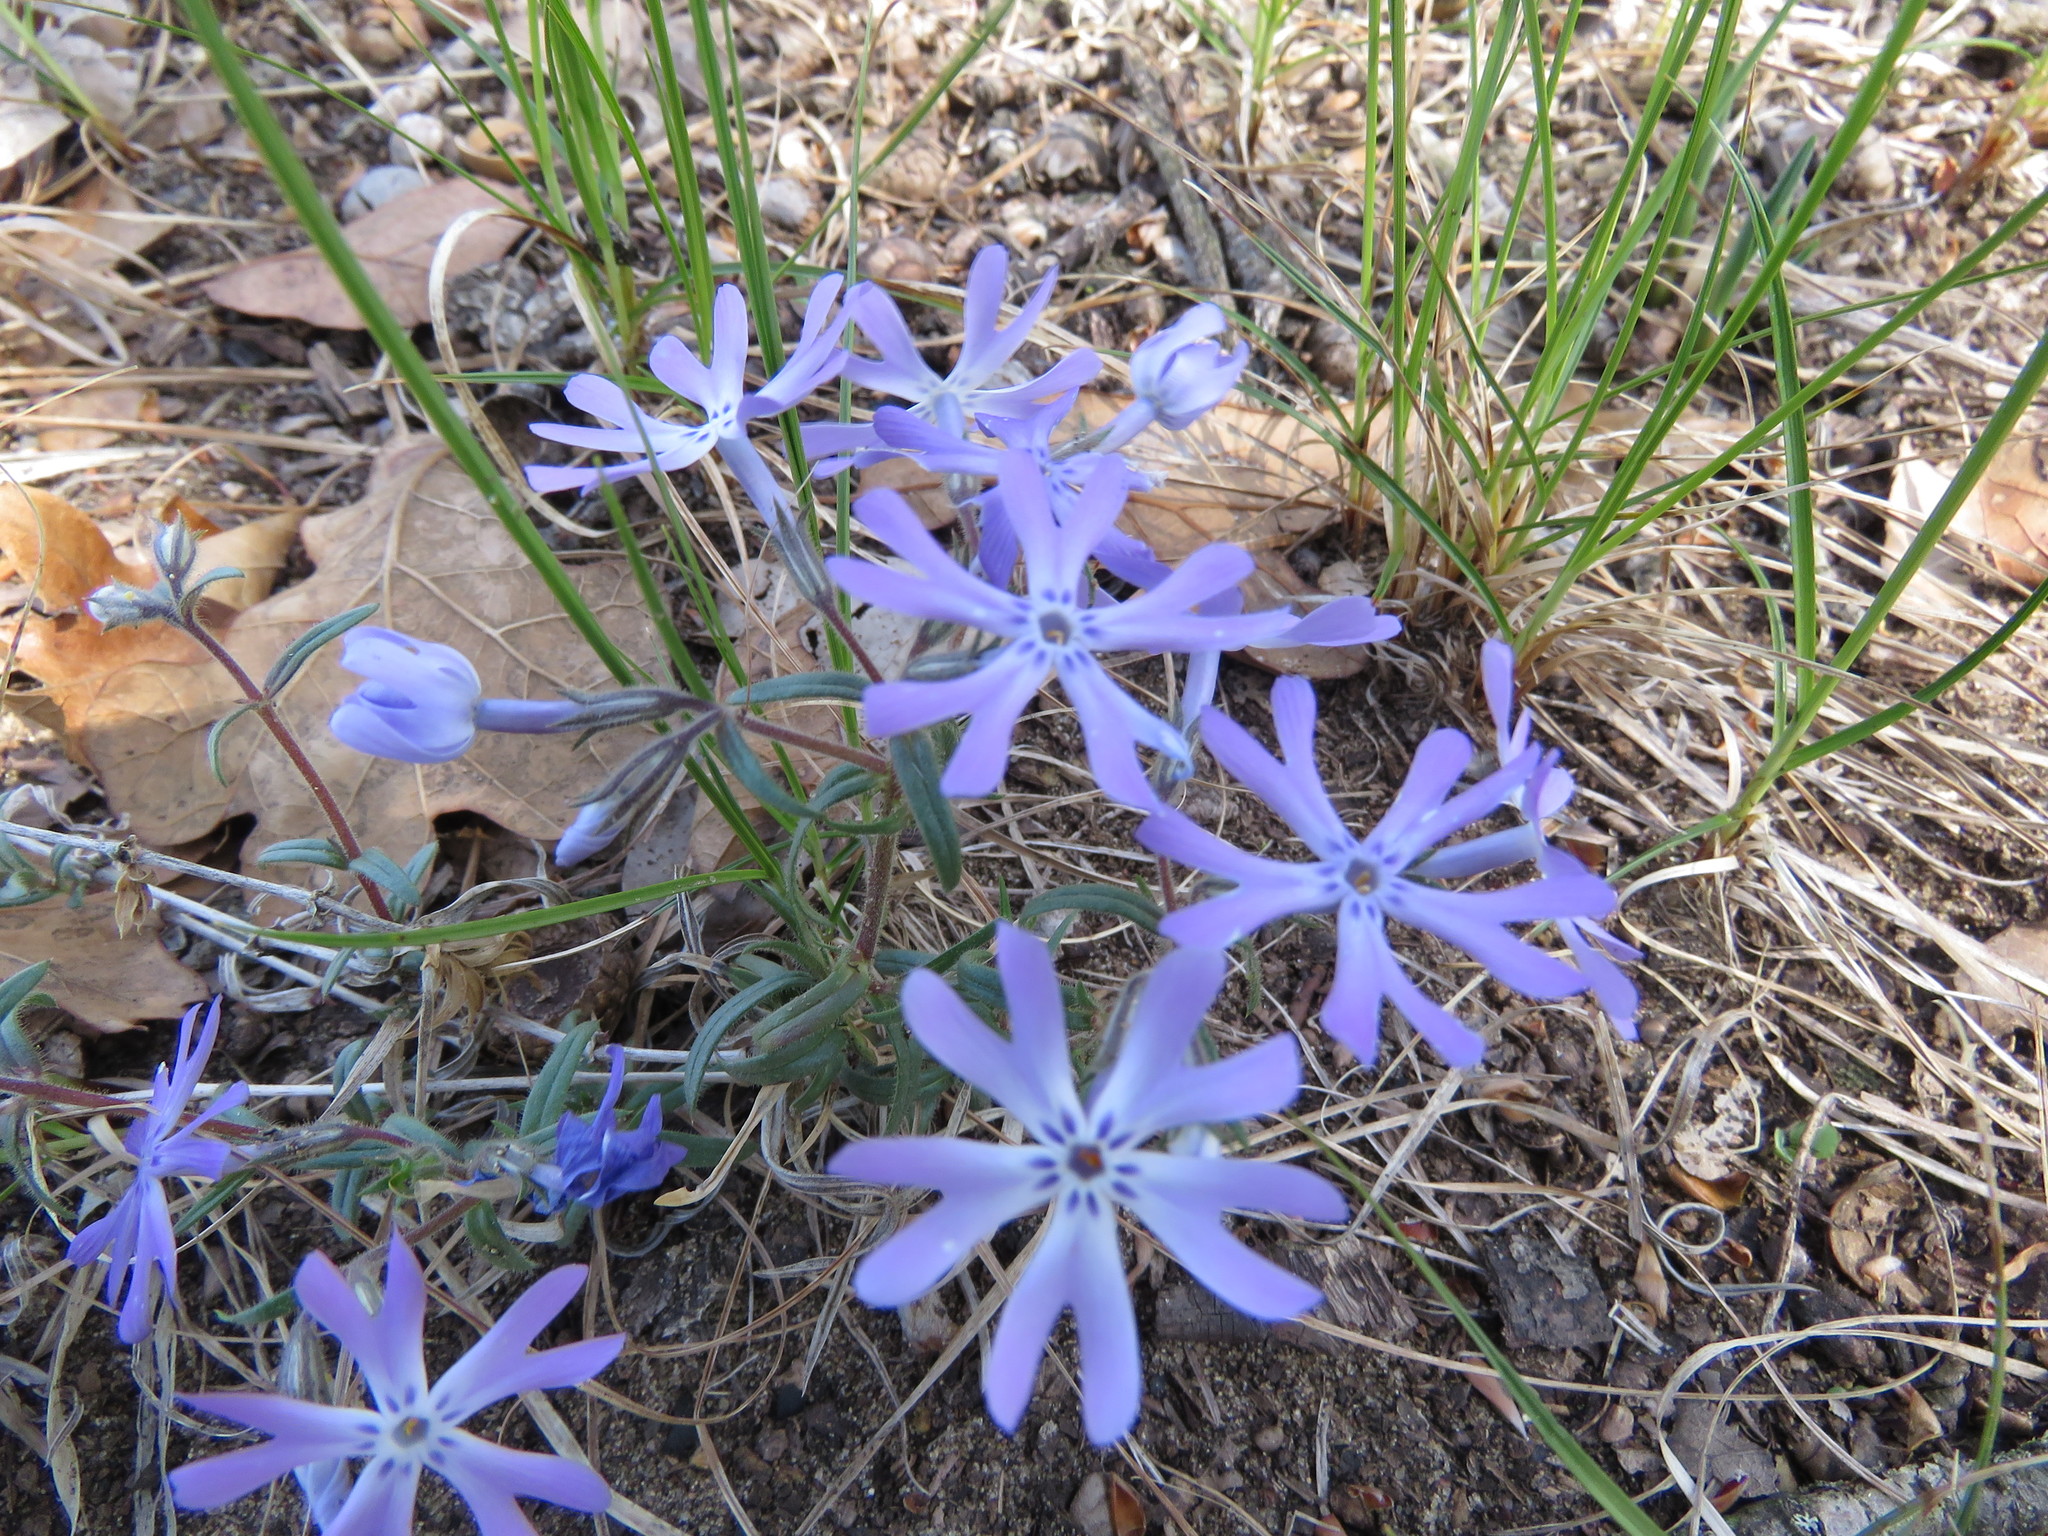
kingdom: Plantae
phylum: Tracheophyta
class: Magnoliopsida
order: Ericales
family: Polemoniaceae
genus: Phlox
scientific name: Phlox bifida
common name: Sand phlox
